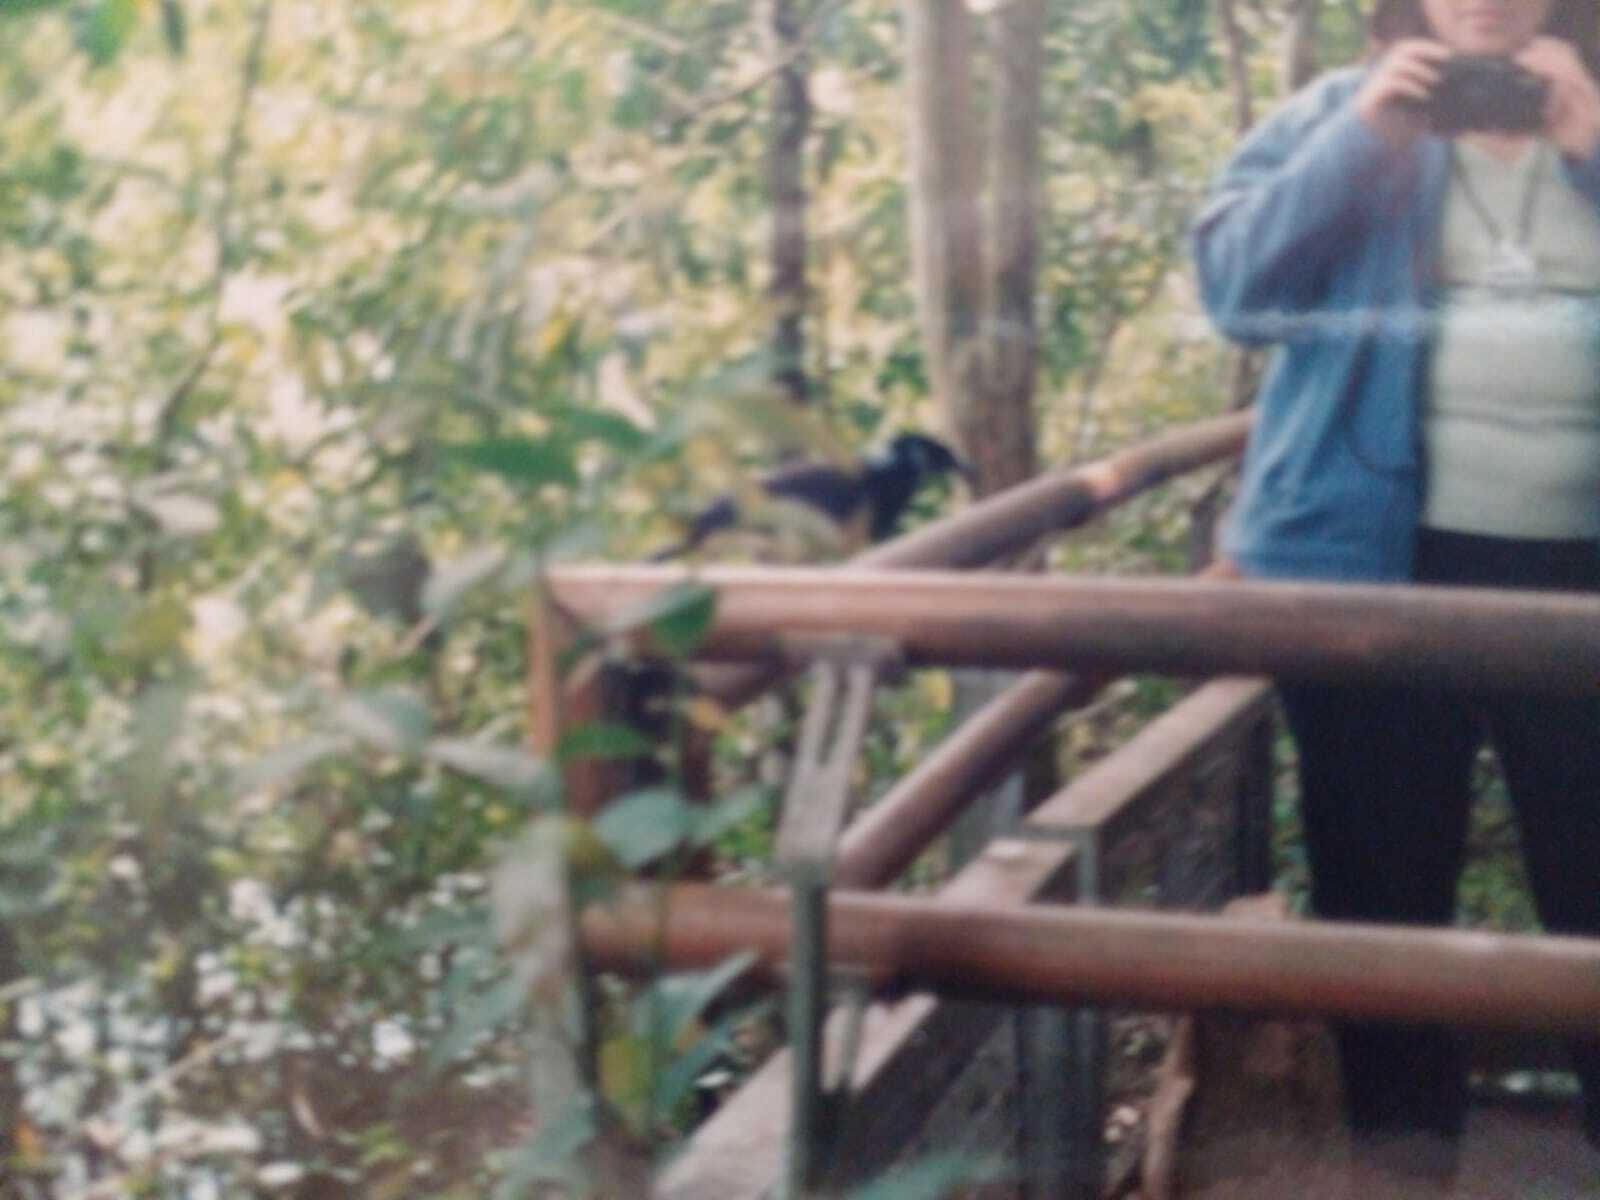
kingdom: Animalia
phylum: Chordata
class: Aves
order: Passeriformes
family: Corvidae
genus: Cyanocorax
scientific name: Cyanocorax chrysops
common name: Plush-crested jay
